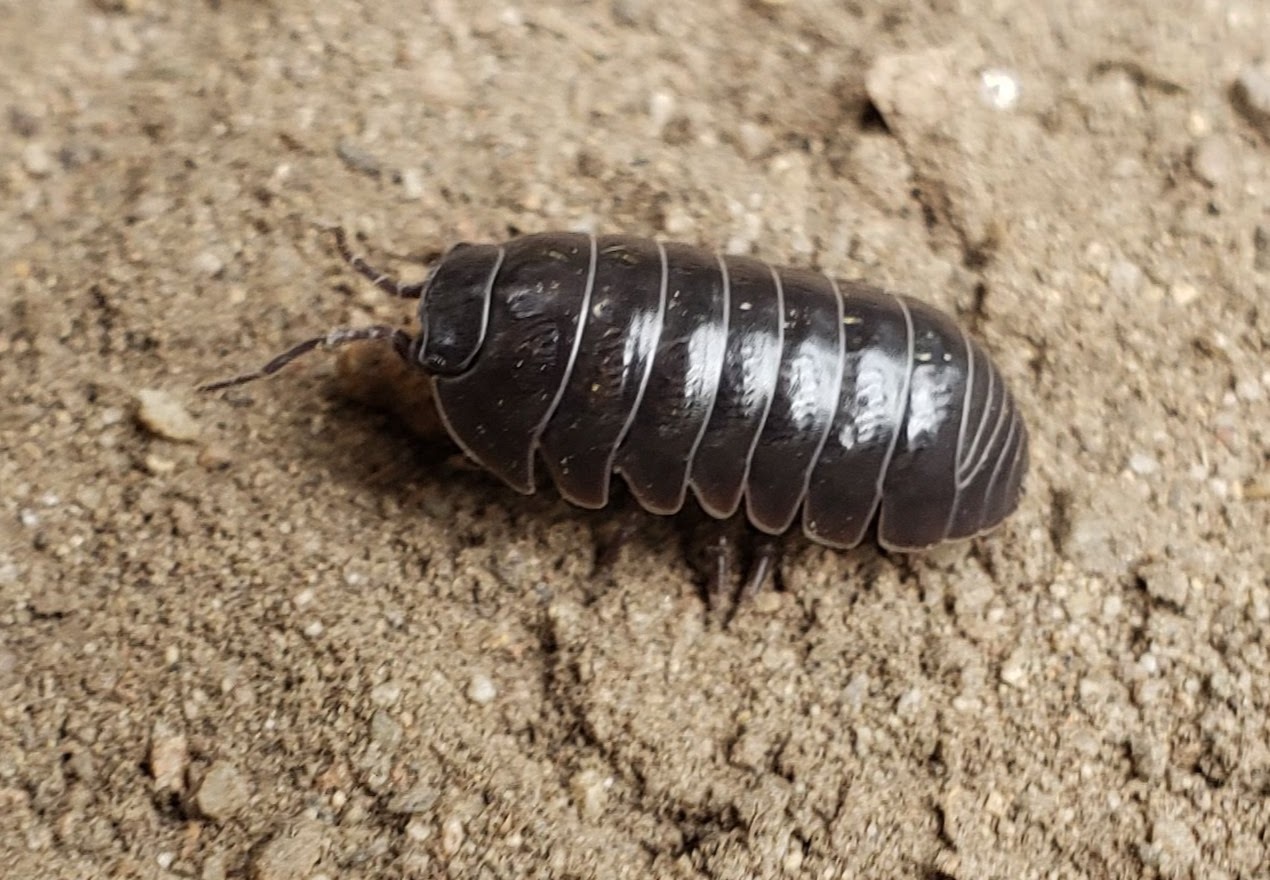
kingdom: Animalia
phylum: Arthropoda
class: Malacostraca
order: Isopoda
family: Armadillidiidae
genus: Armadillidium
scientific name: Armadillidium vulgare
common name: Common pill woodlouse
